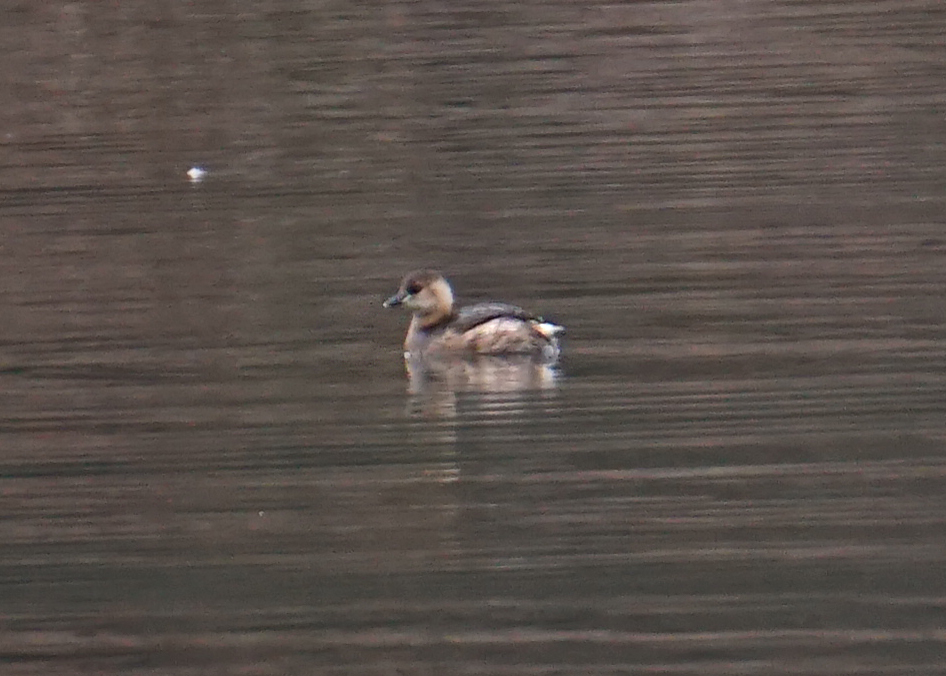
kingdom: Animalia
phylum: Chordata
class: Aves
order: Podicipediformes
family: Podicipedidae
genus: Tachybaptus
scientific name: Tachybaptus ruficollis
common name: Little grebe
